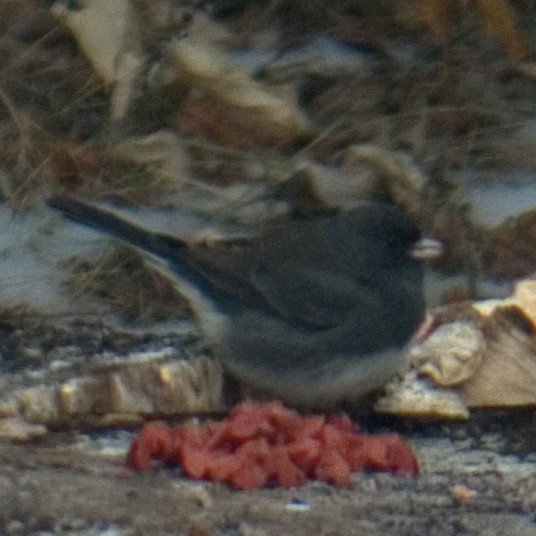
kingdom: Animalia
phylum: Chordata
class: Aves
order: Passeriformes
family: Passerellidae
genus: Junco
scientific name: Junco hyemalis
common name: Dark-eyed junco
